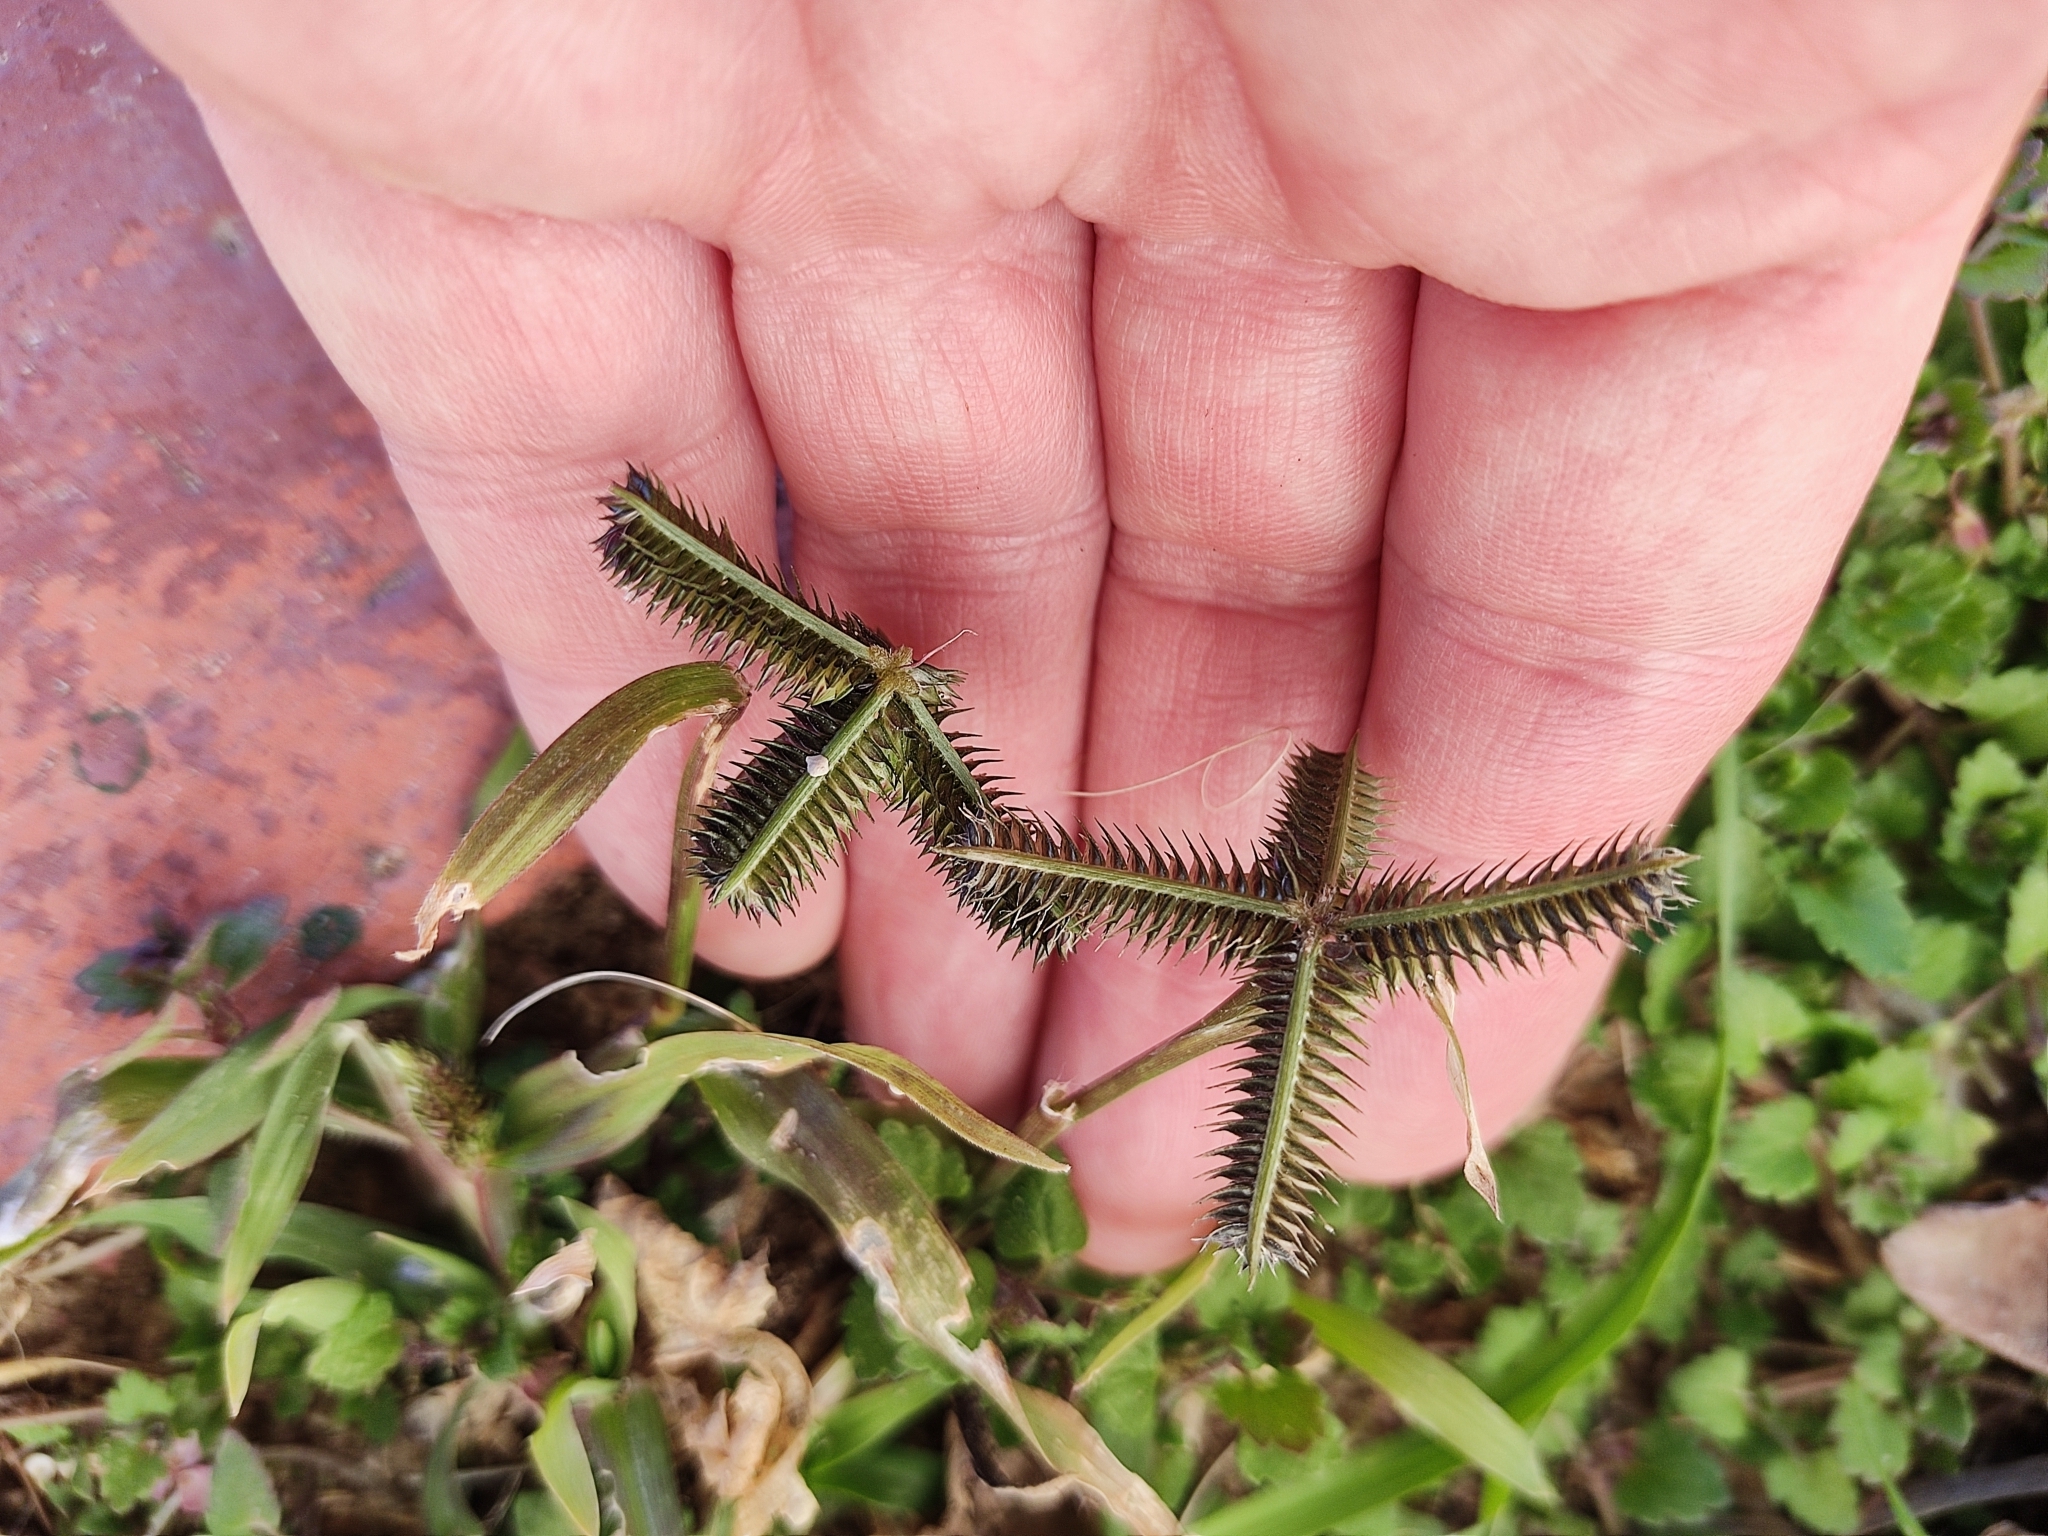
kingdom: Plantae
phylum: Tracheophyta
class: Liliopsida
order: Poales
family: Poaceae
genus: Dactyloctenium
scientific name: Dactyloctenium aegyptium
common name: Egyptian grass
